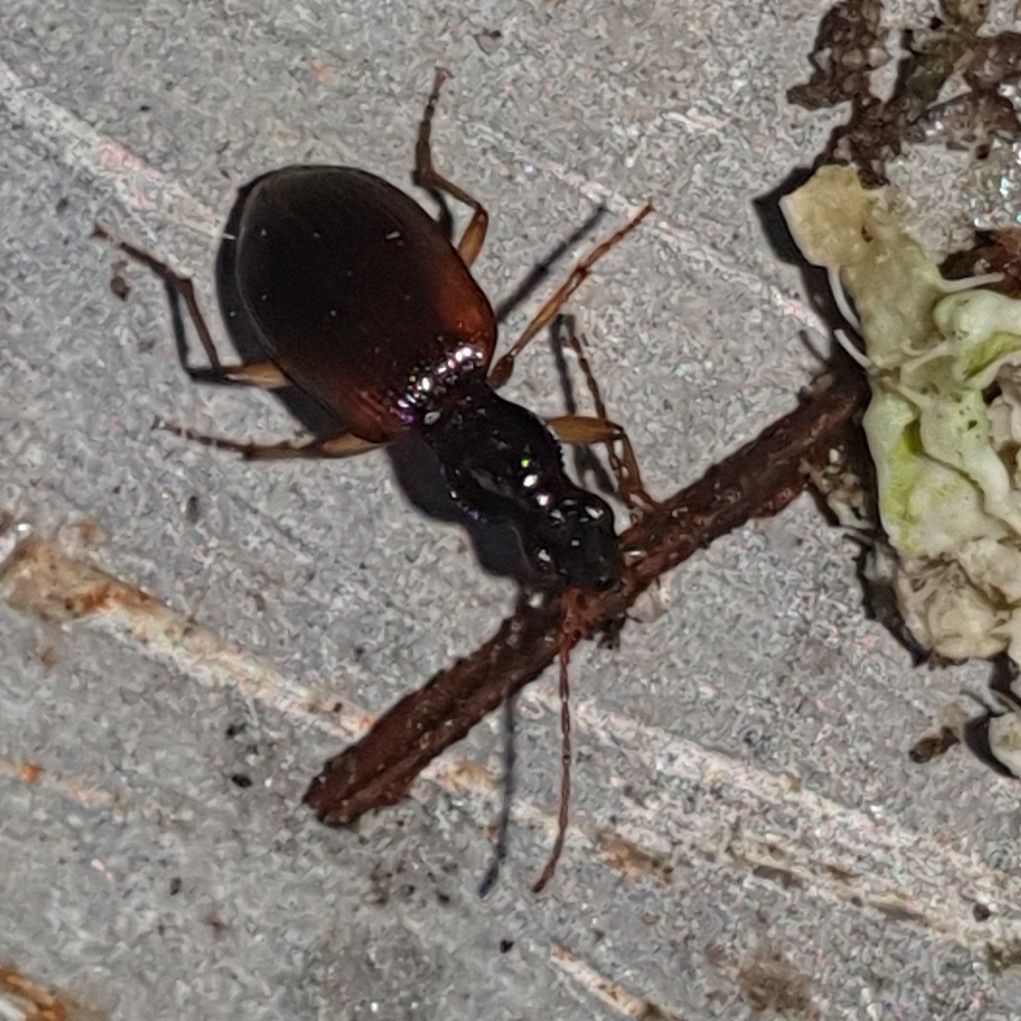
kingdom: Animalia
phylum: Arthropoda
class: Insecta
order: Coleoptera
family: Carabidae
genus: Oxypselaphus
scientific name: Oxypselaphus obscurus
